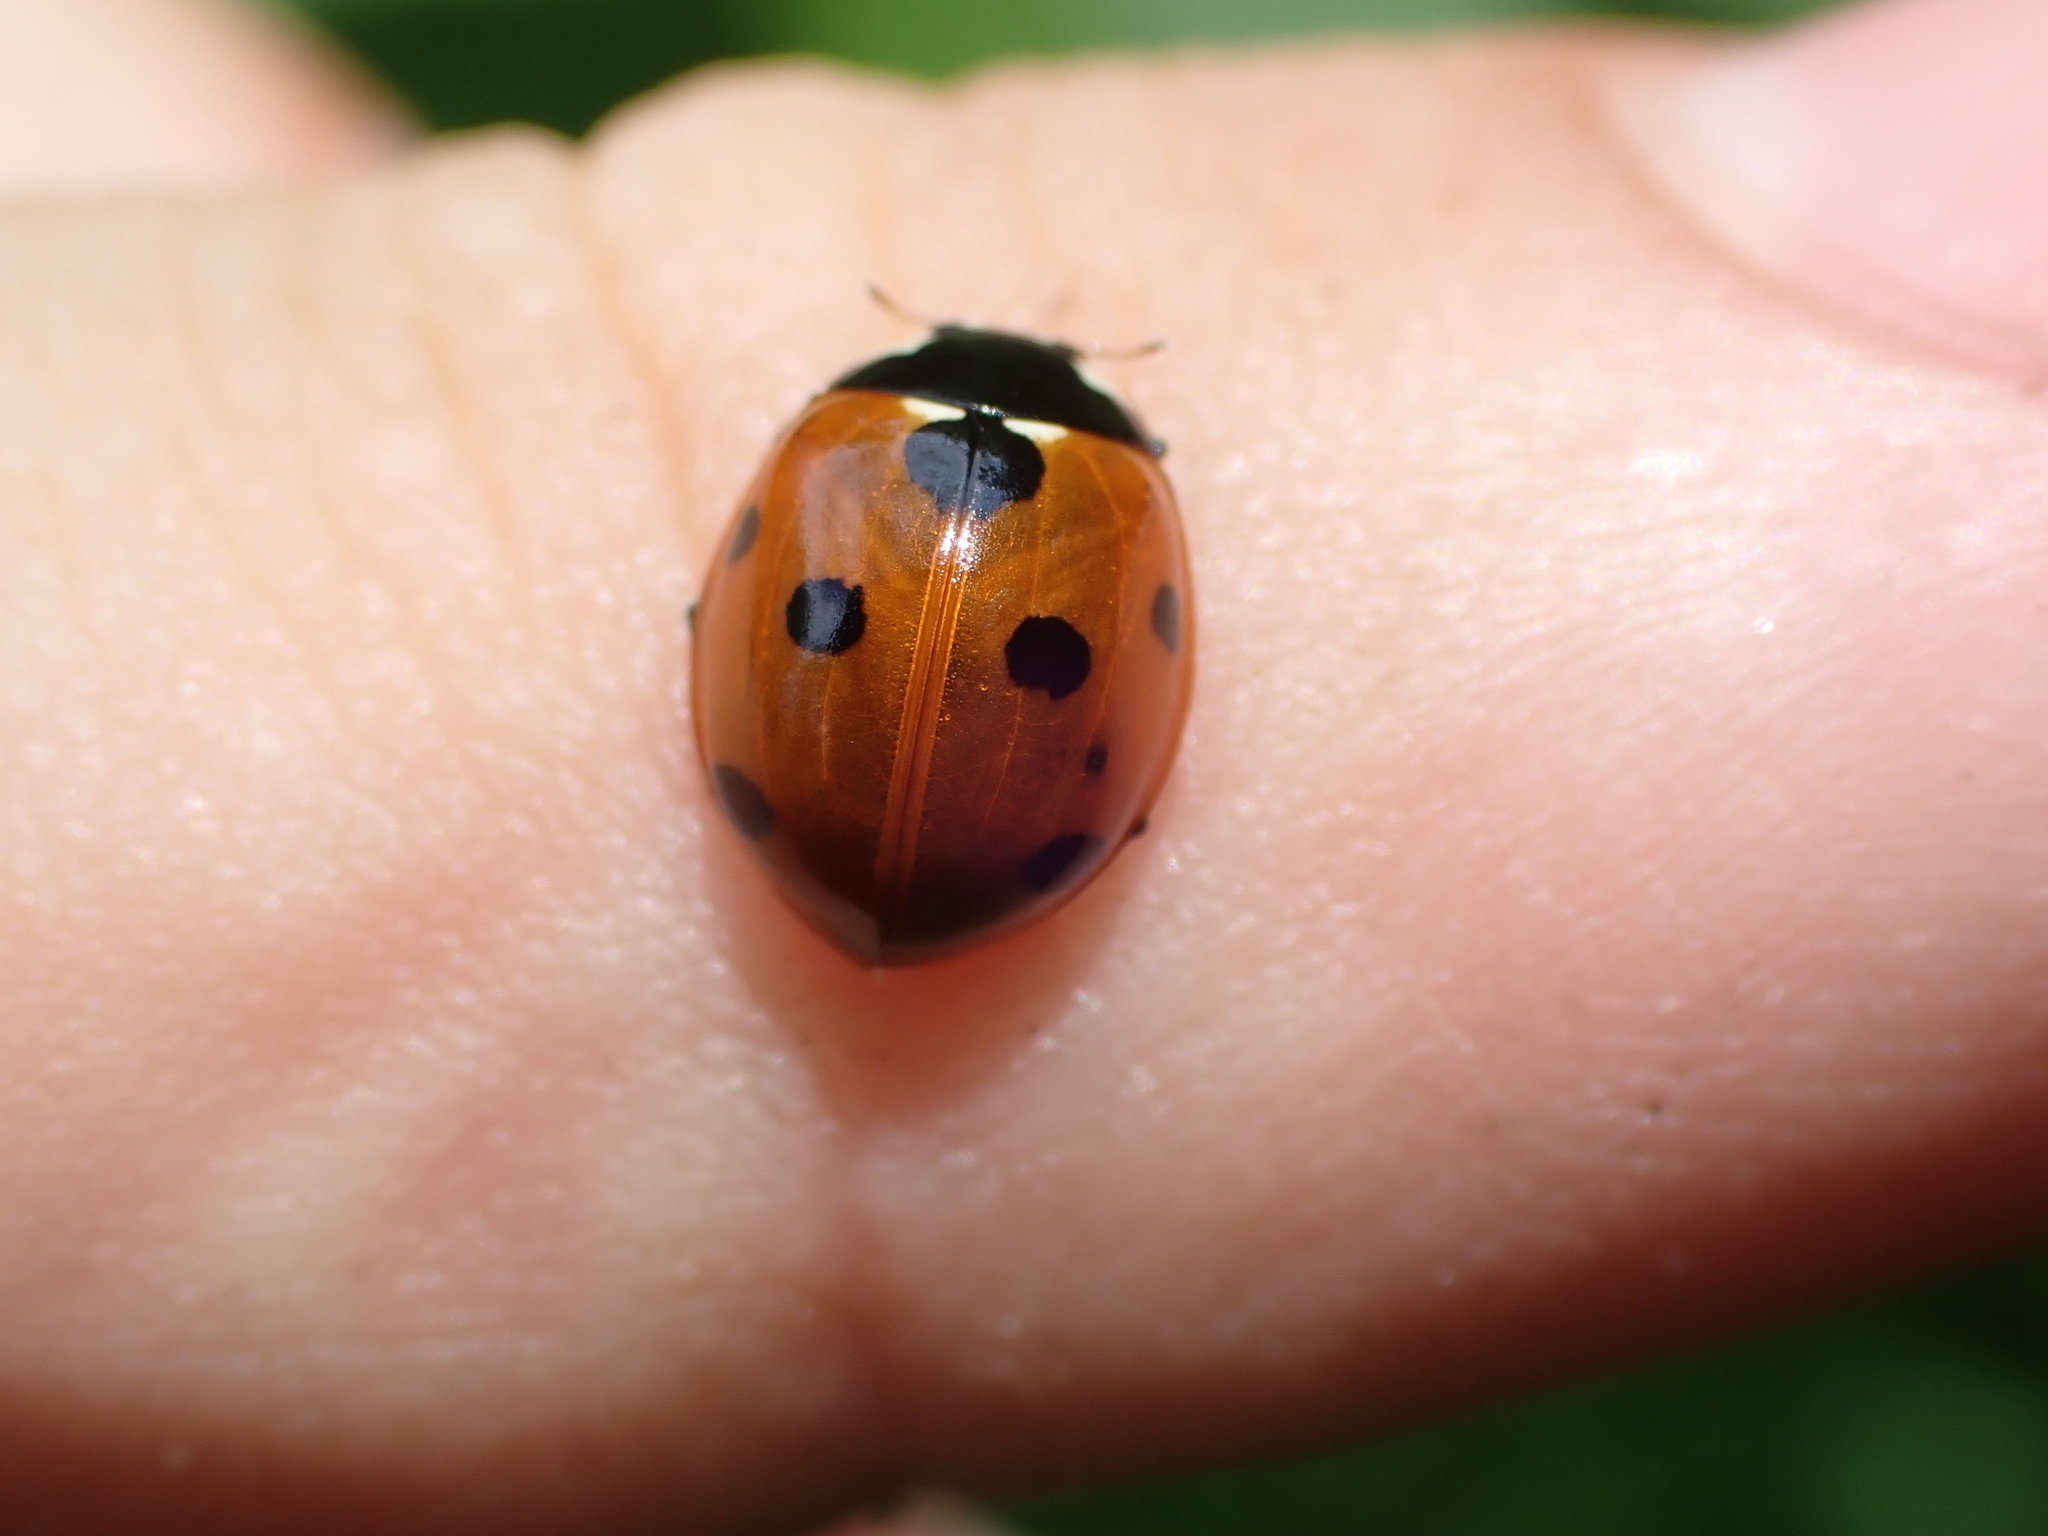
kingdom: Animalia
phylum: Arthropoda
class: Insecta
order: Coleoptera
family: Coccinellidae
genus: Coccinella
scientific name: Coccinella septempunctata
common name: Sevenspotted lady beetle
